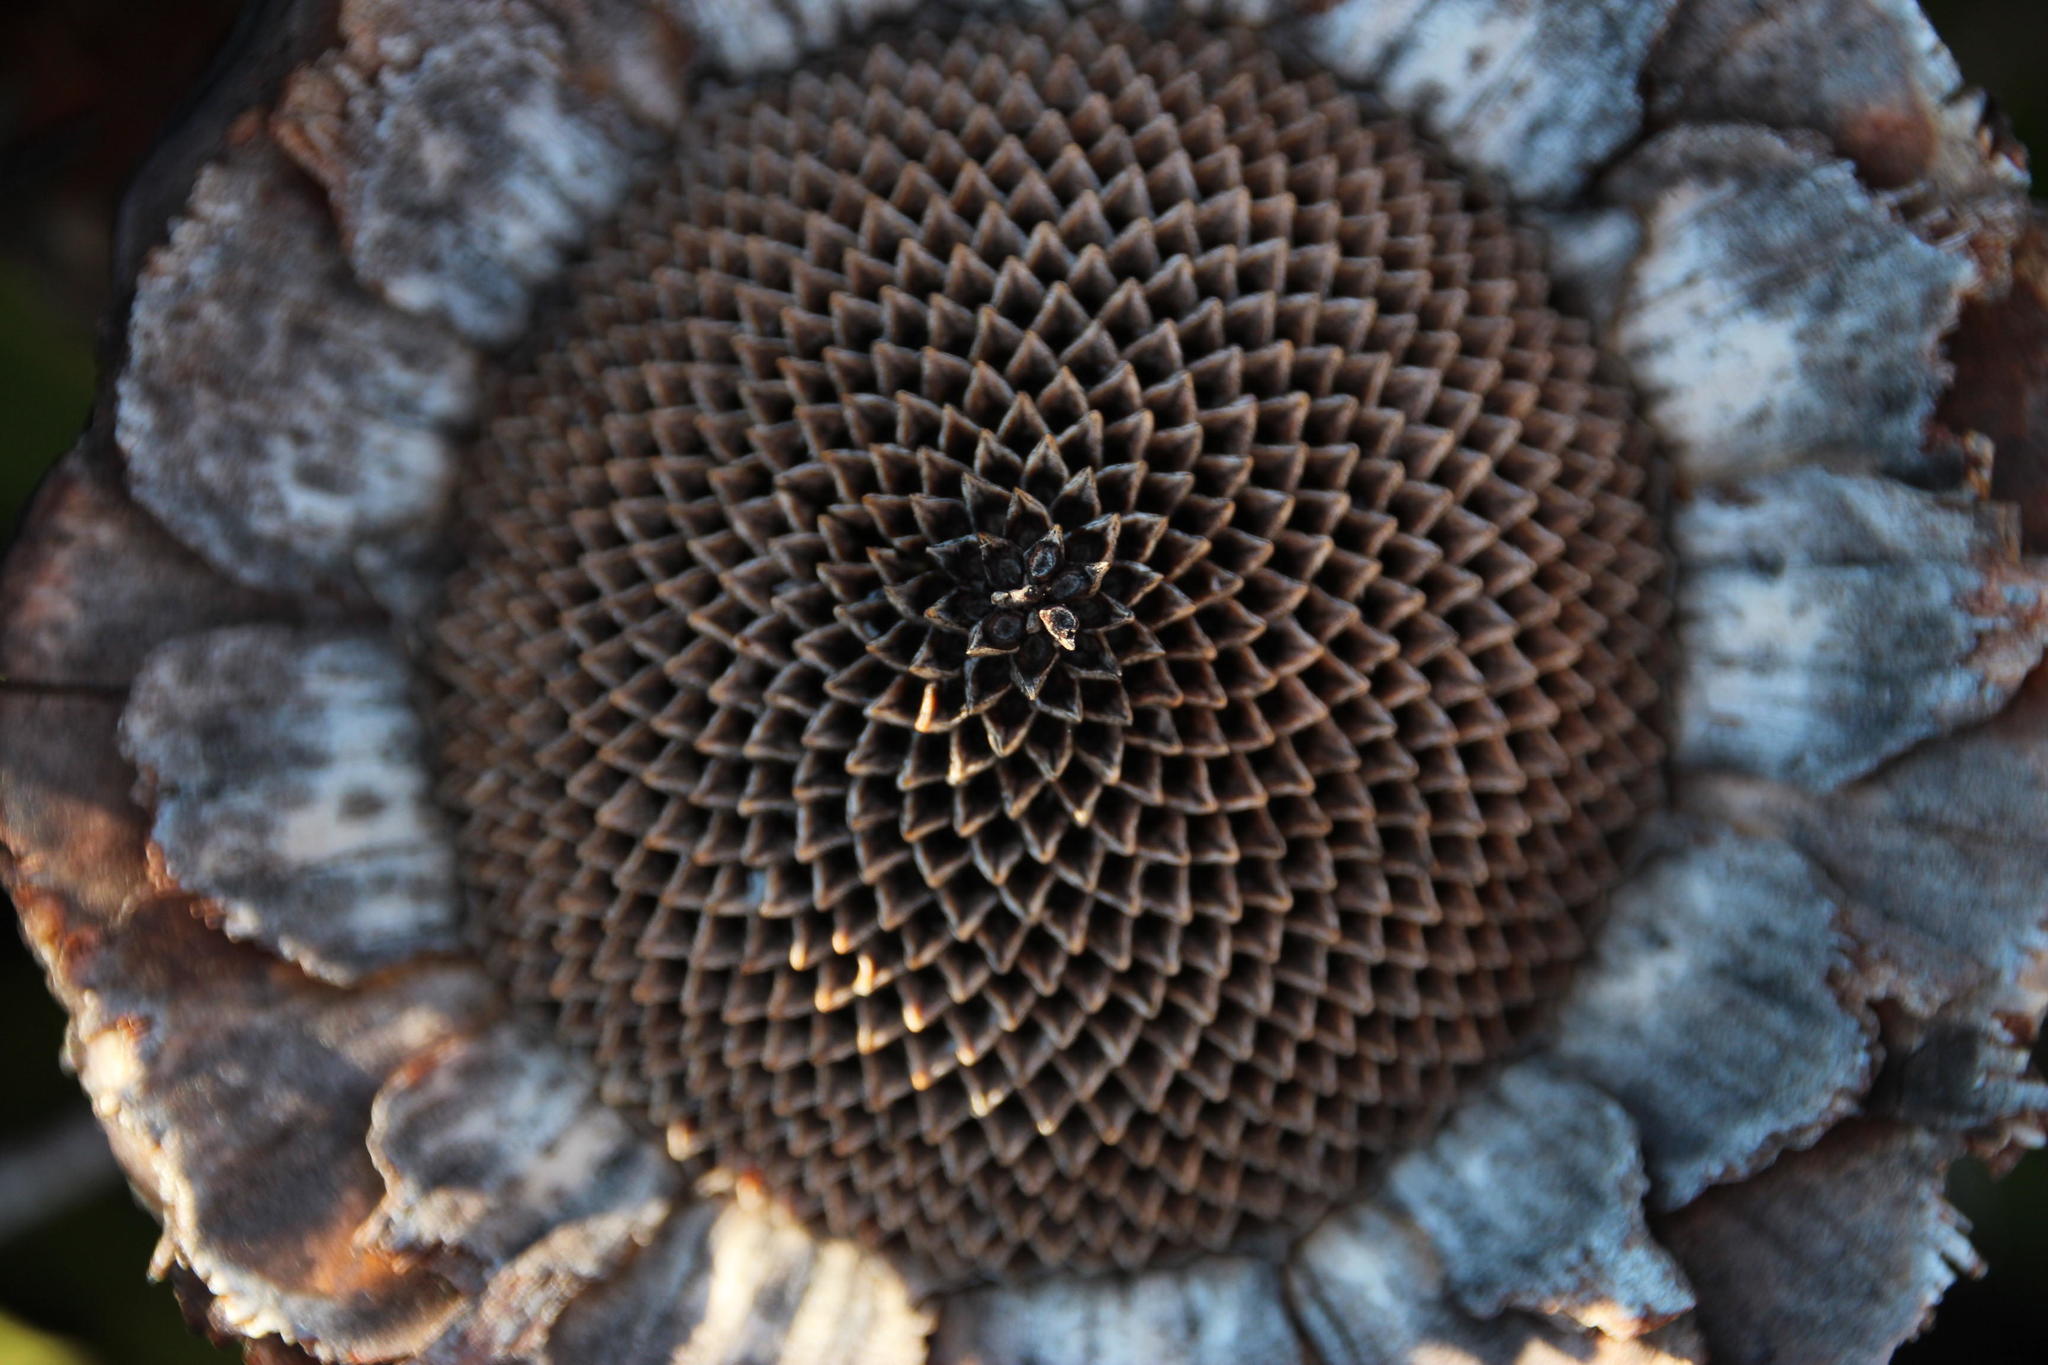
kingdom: Plantae
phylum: Tracheophyta
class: Magnoliopsida
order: Proteales
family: Proteaceae
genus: Protea
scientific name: Protea cynaroides
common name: King protea
